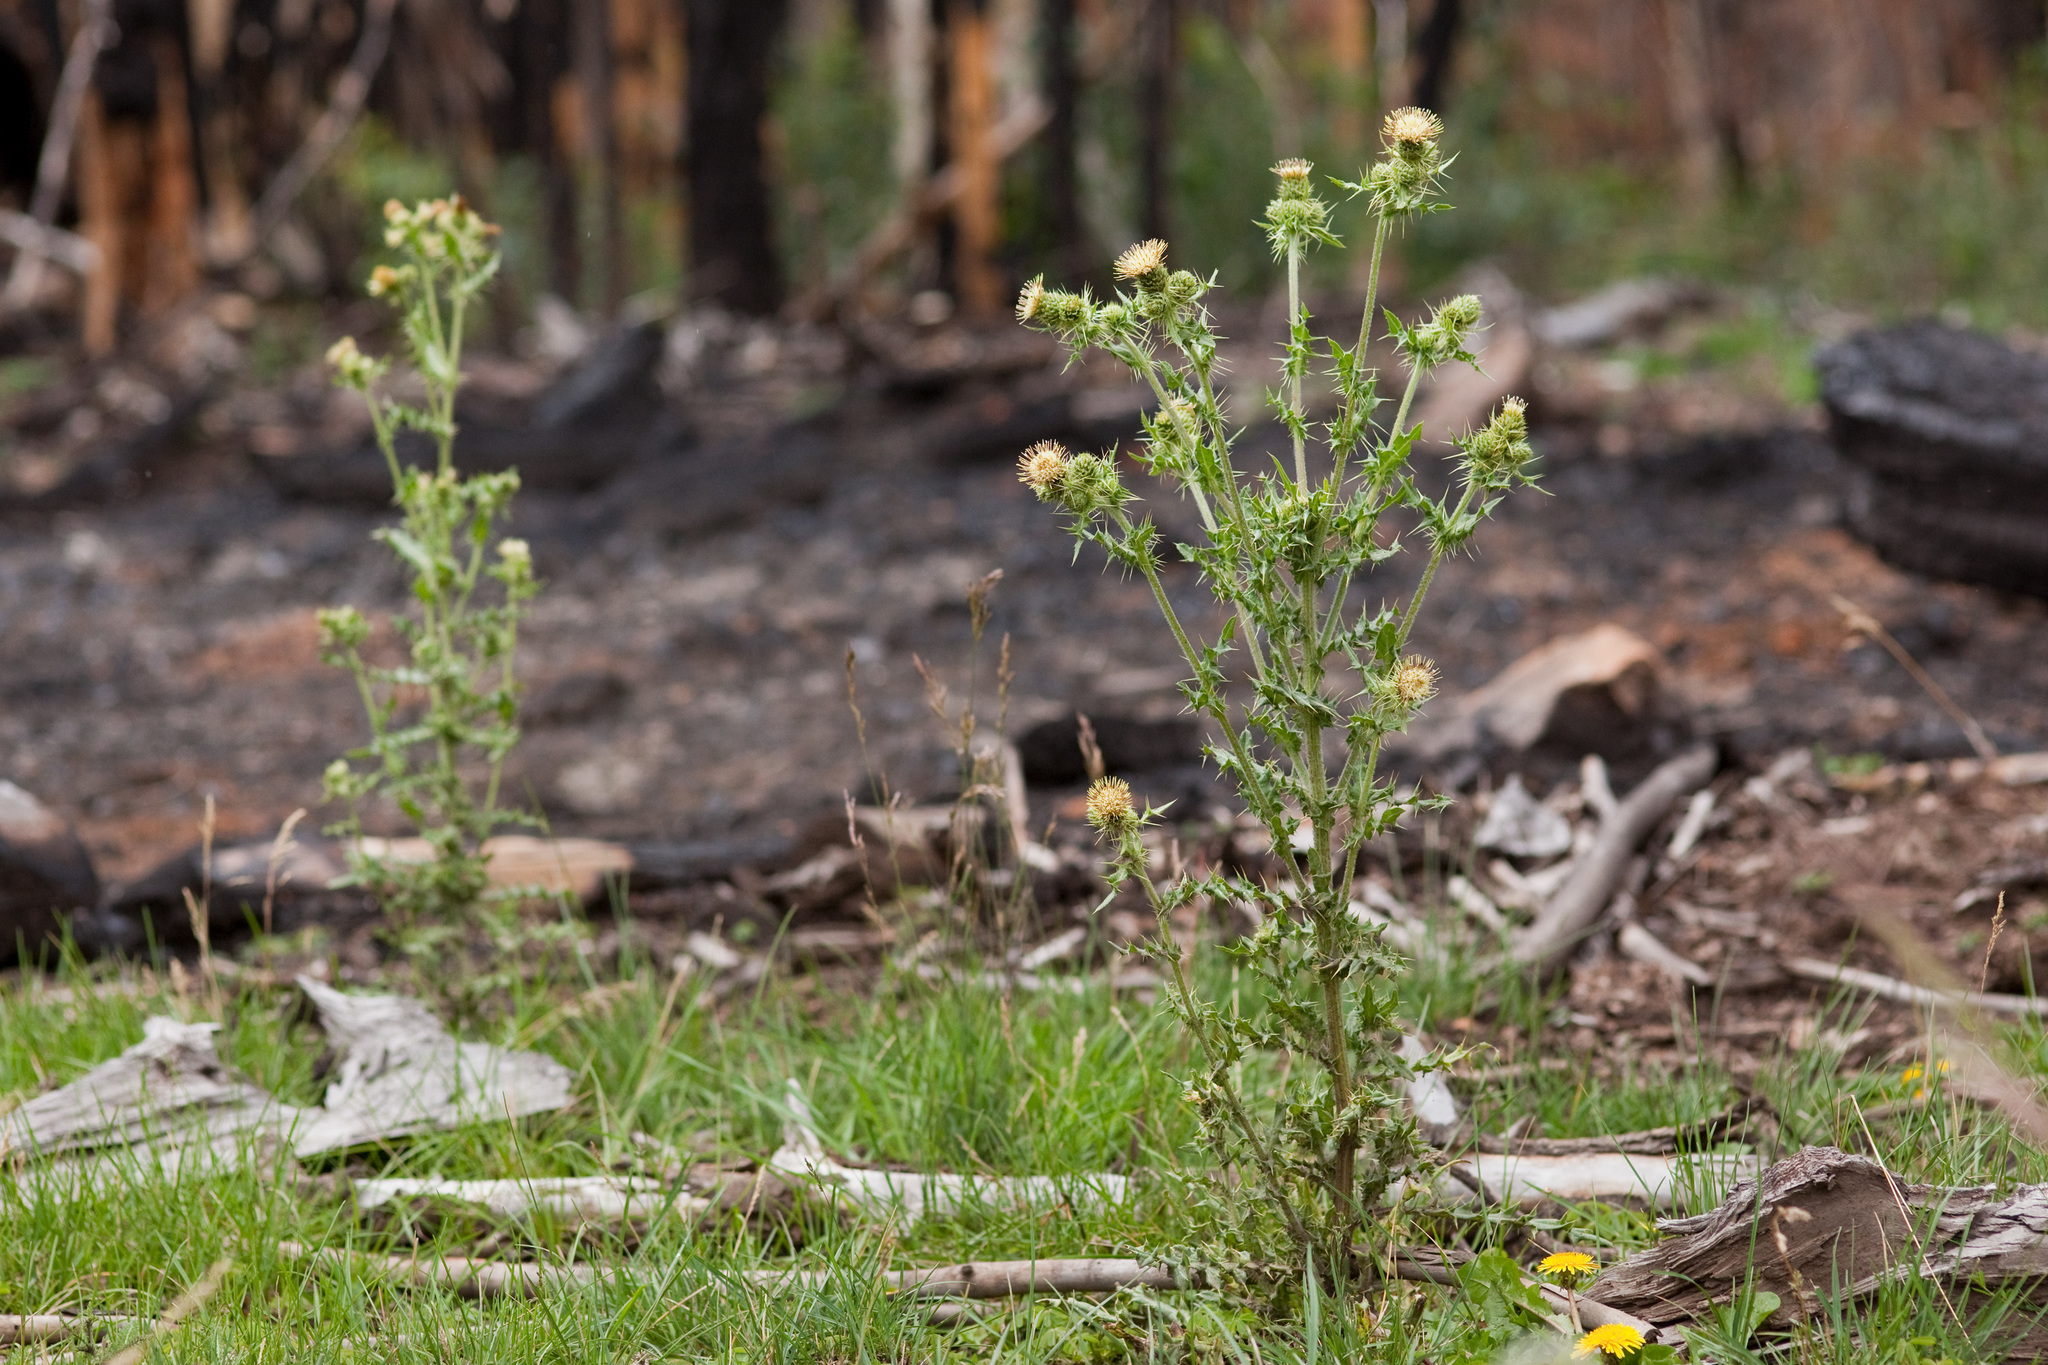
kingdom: Plantae
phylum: Tracheophyta
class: Magnoliopsida
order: Asterales
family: Asteraceae
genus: Cirsium
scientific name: Cirsium parryi
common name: Parry's thistle
